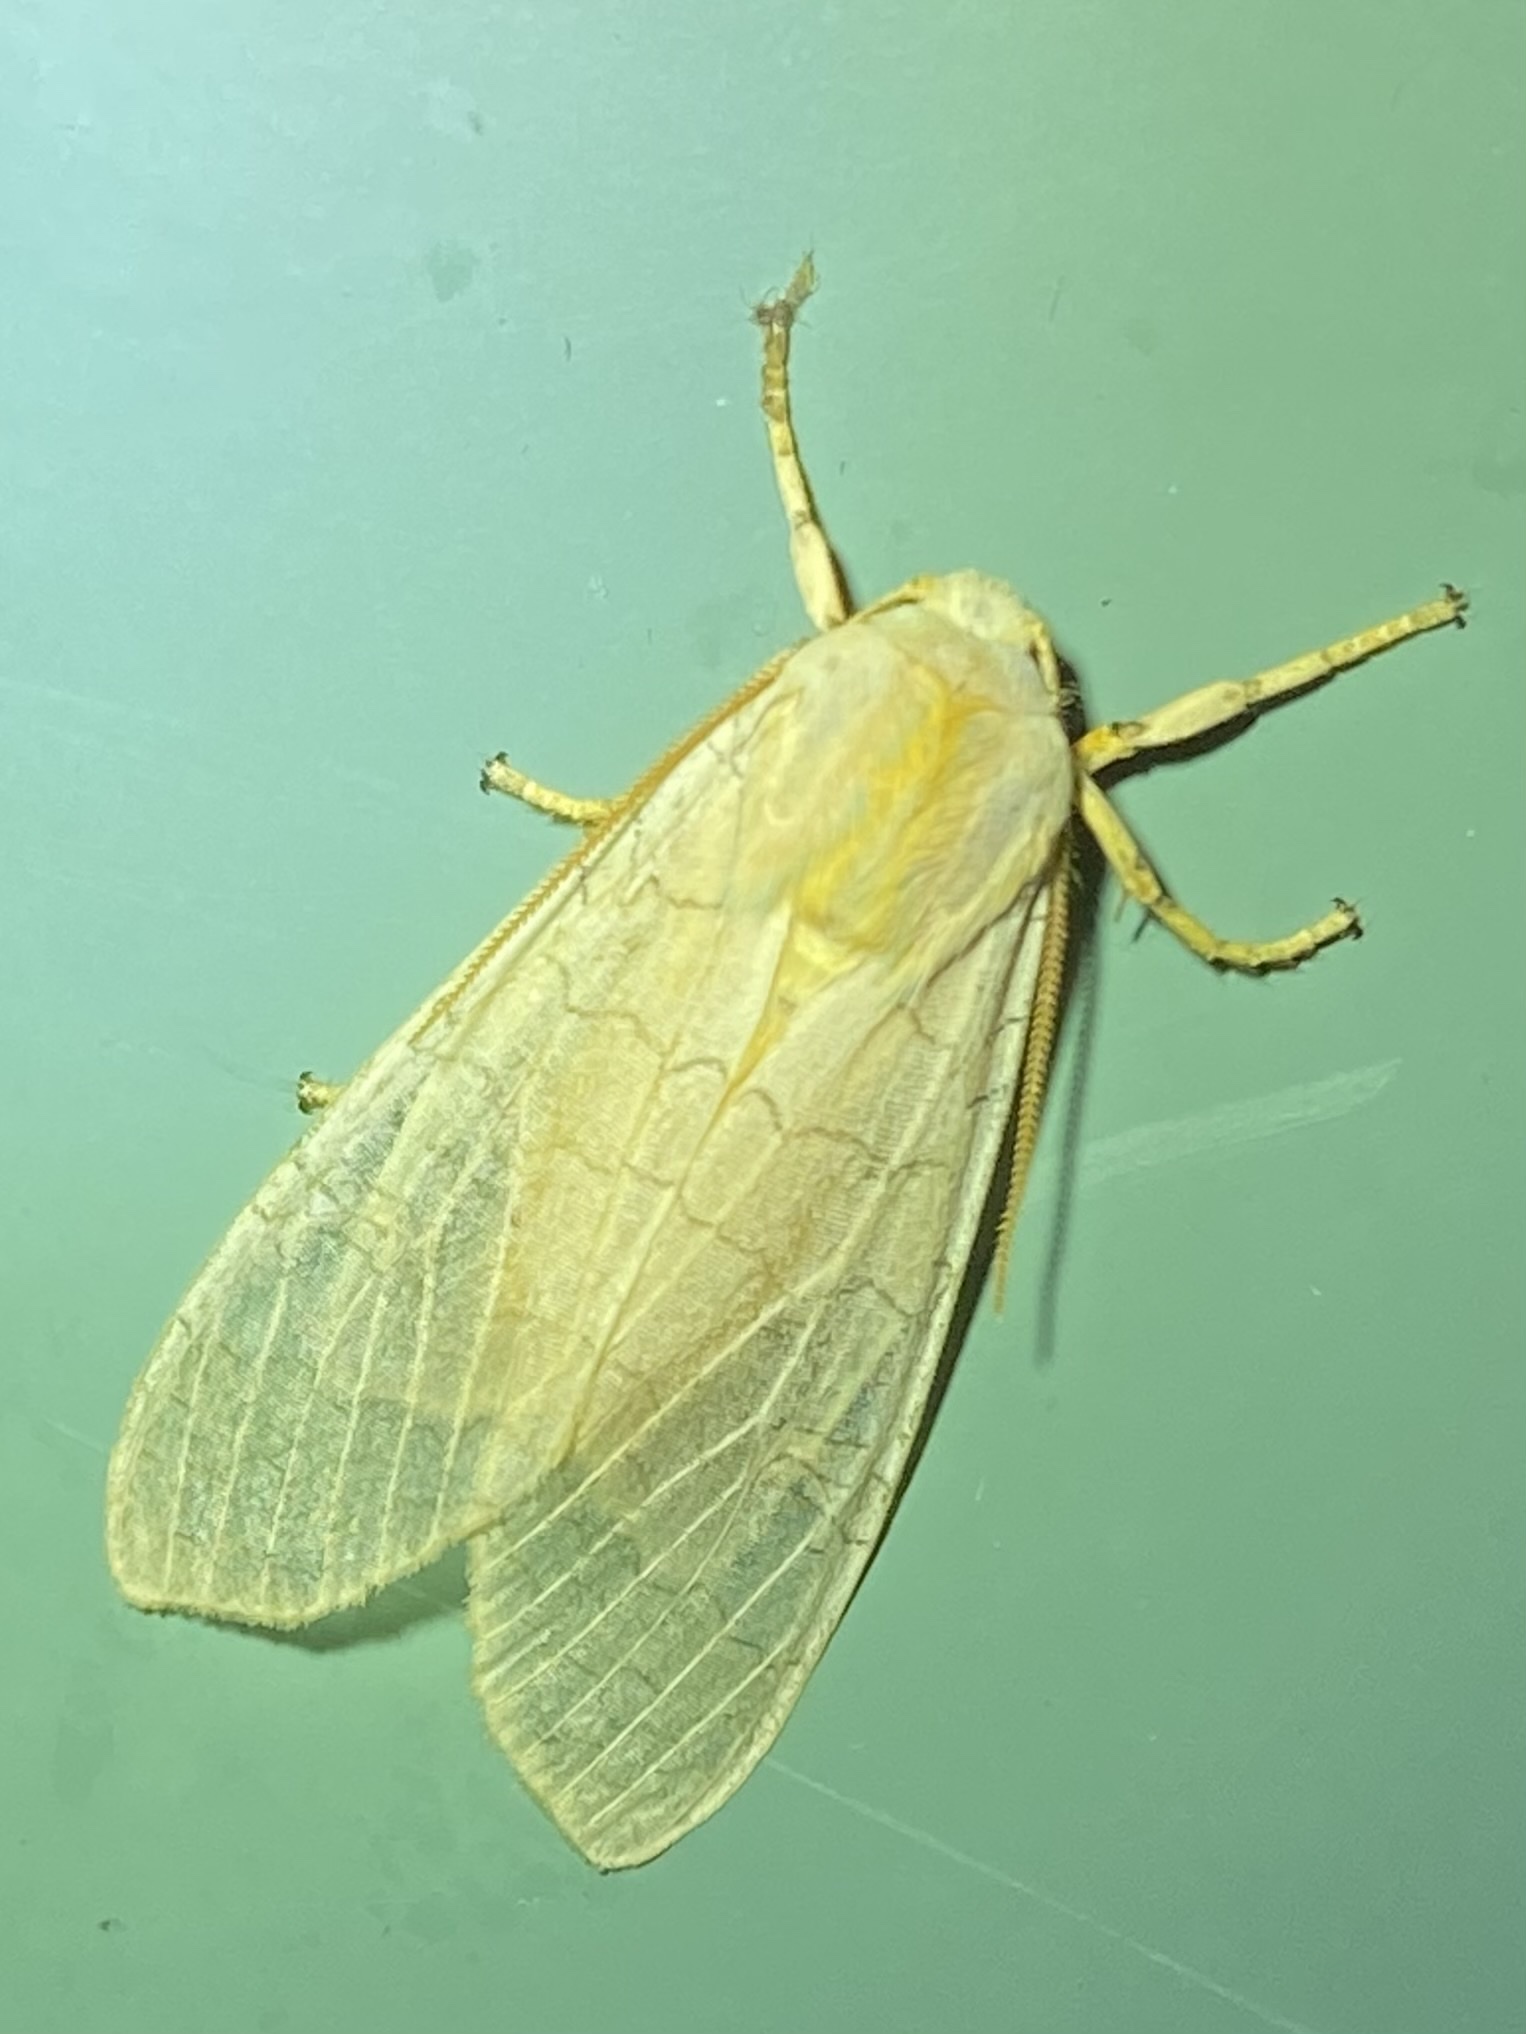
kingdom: Animalia
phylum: Arthropoda
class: Insecta
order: Lepidoptera
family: Erebidae
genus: Halysidota
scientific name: Halysidota tessellaris
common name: Banded tussock moth
